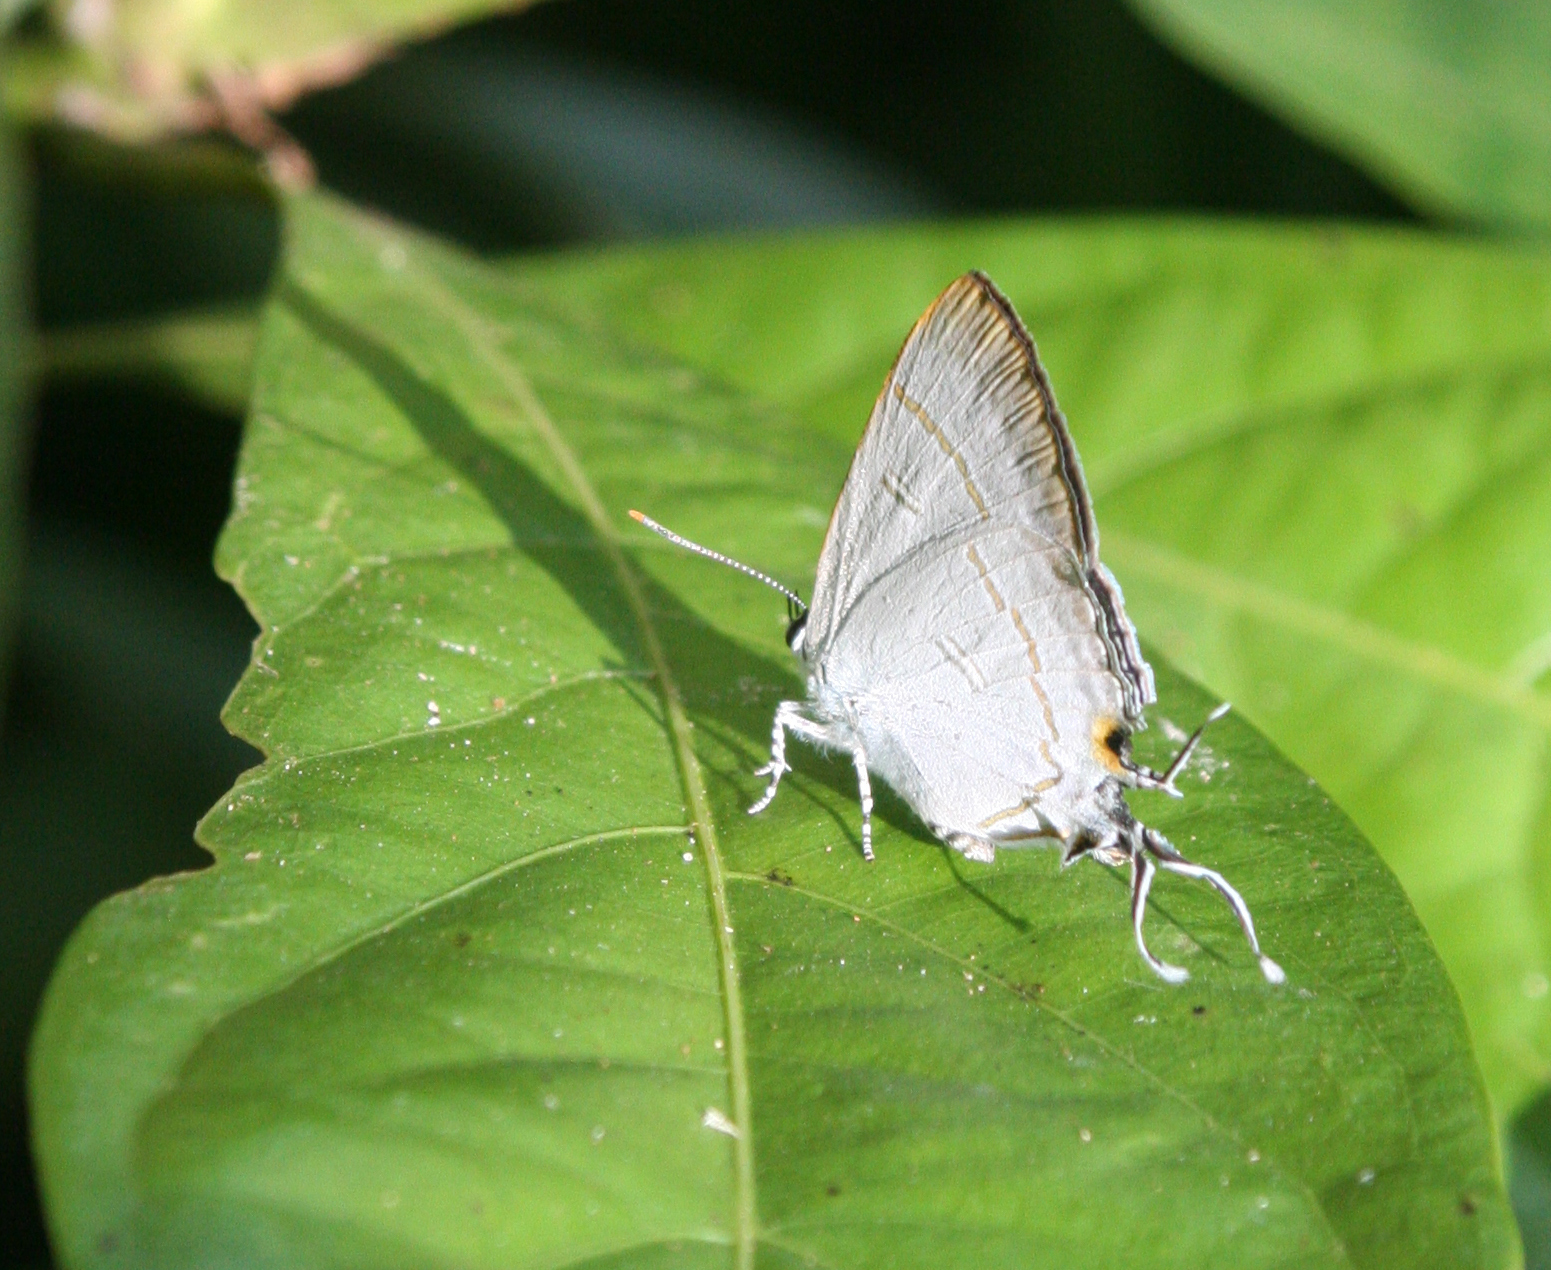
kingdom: Animalia
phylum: Arthropoda
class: Insecta
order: Lepidoptera
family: Lycaenidae
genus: Hypolycaena
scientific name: Hypolycaena erylus
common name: Common tit
